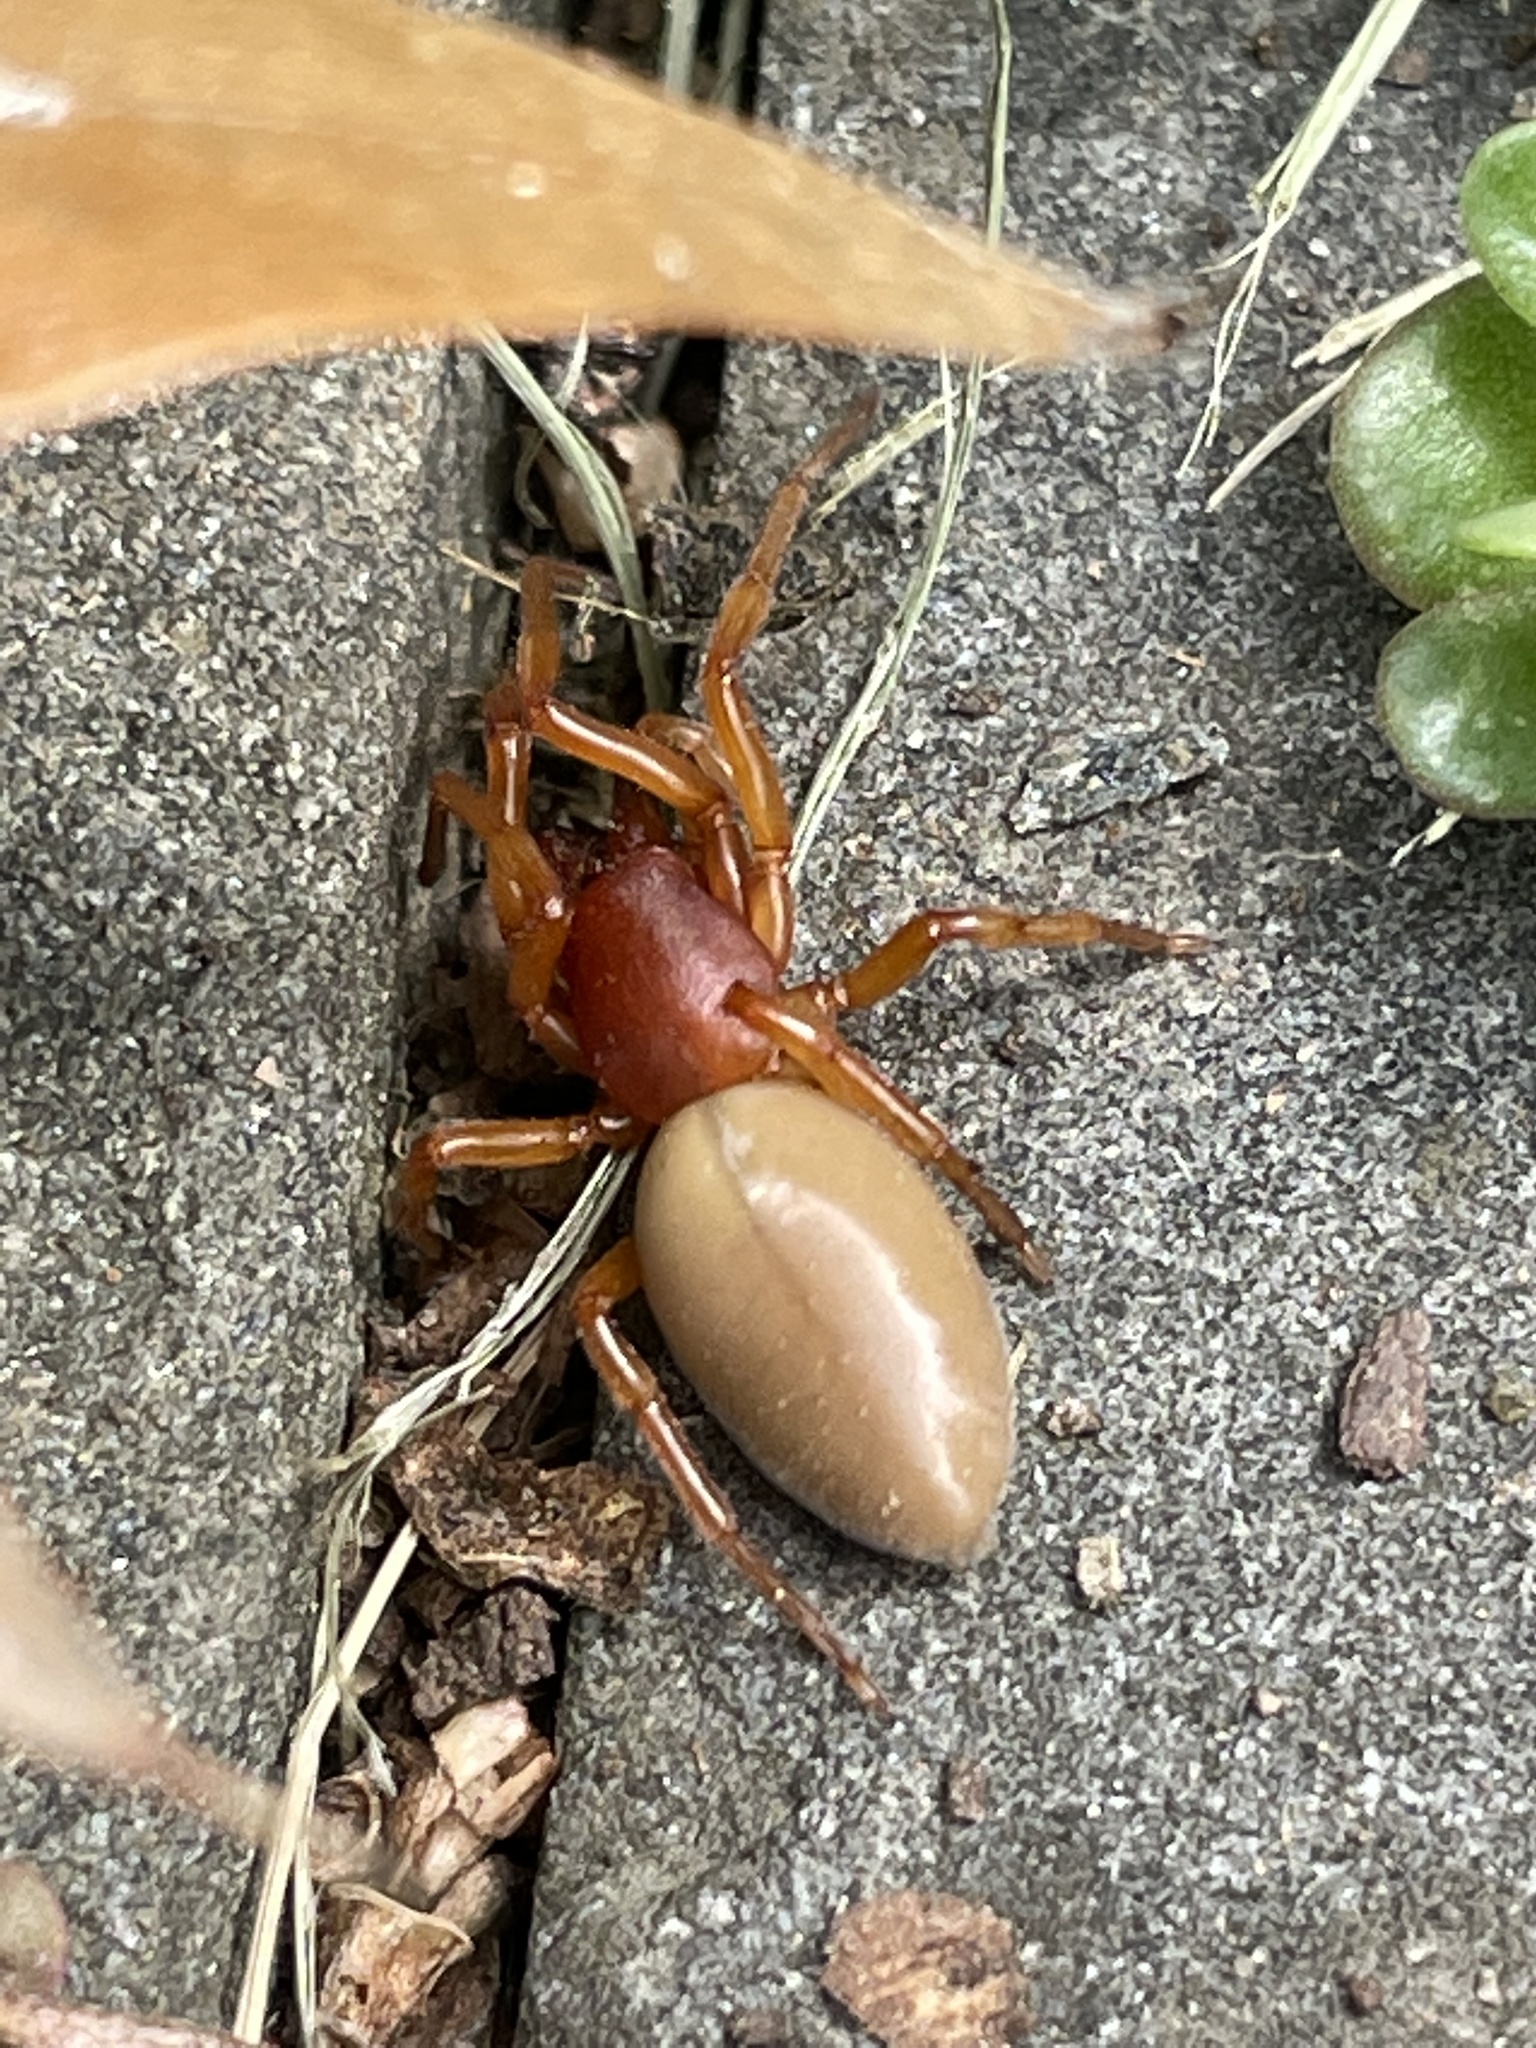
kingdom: Animalia
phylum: Arthropoda
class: Arachnida
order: Araneae
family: Dysderidae
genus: Dysdera
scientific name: Dysdera crocata
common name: Woodlouse spider
